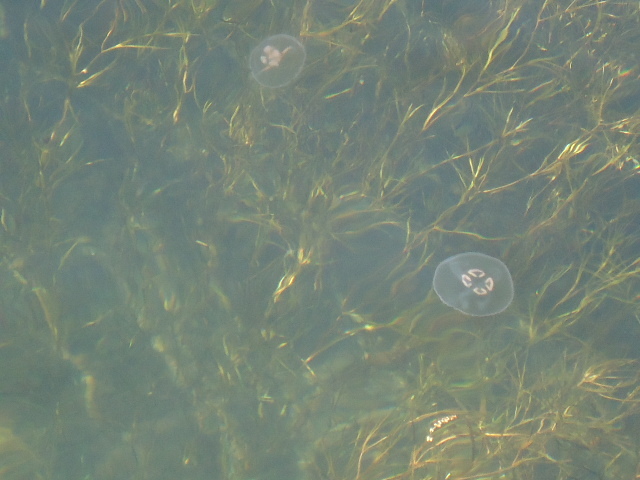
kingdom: Animalia
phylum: Cnidaria
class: Scyphozoa
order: Semaeostomeae
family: Ulmaridae
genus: Aurelia
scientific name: Aurelia aurita
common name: Moon jellyfish
